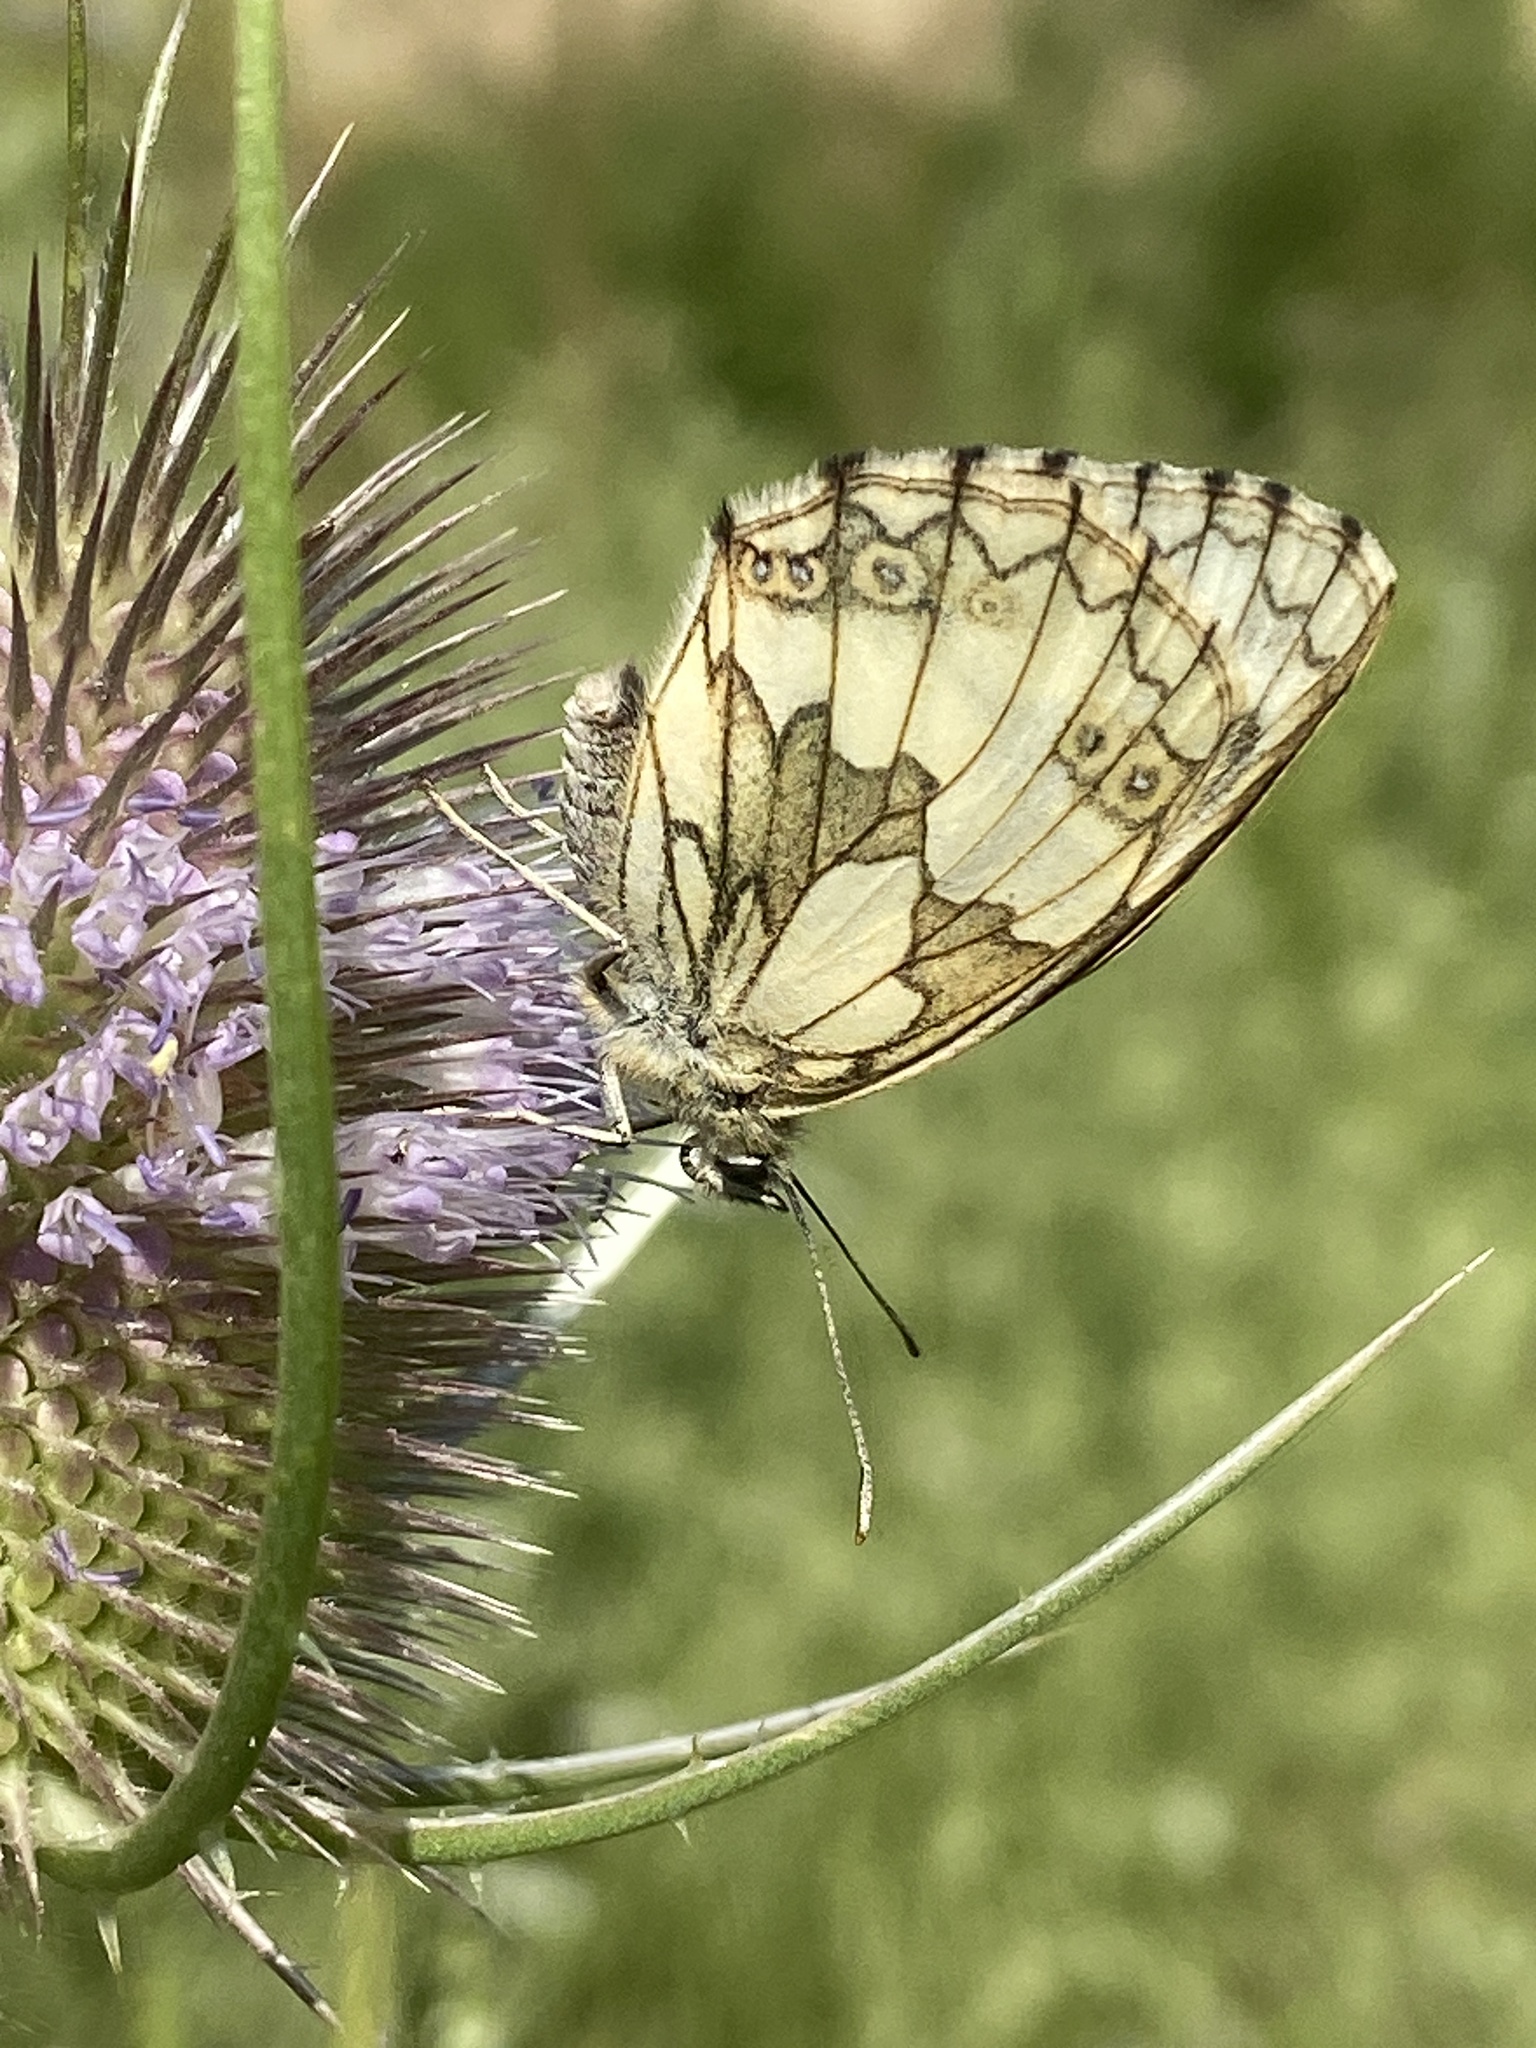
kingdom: Animalia
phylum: Arthropoda
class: Insecta
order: Lepidoptera
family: Nymphalidae
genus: Melanargia
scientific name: Melanargia galathea
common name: Marbled white
